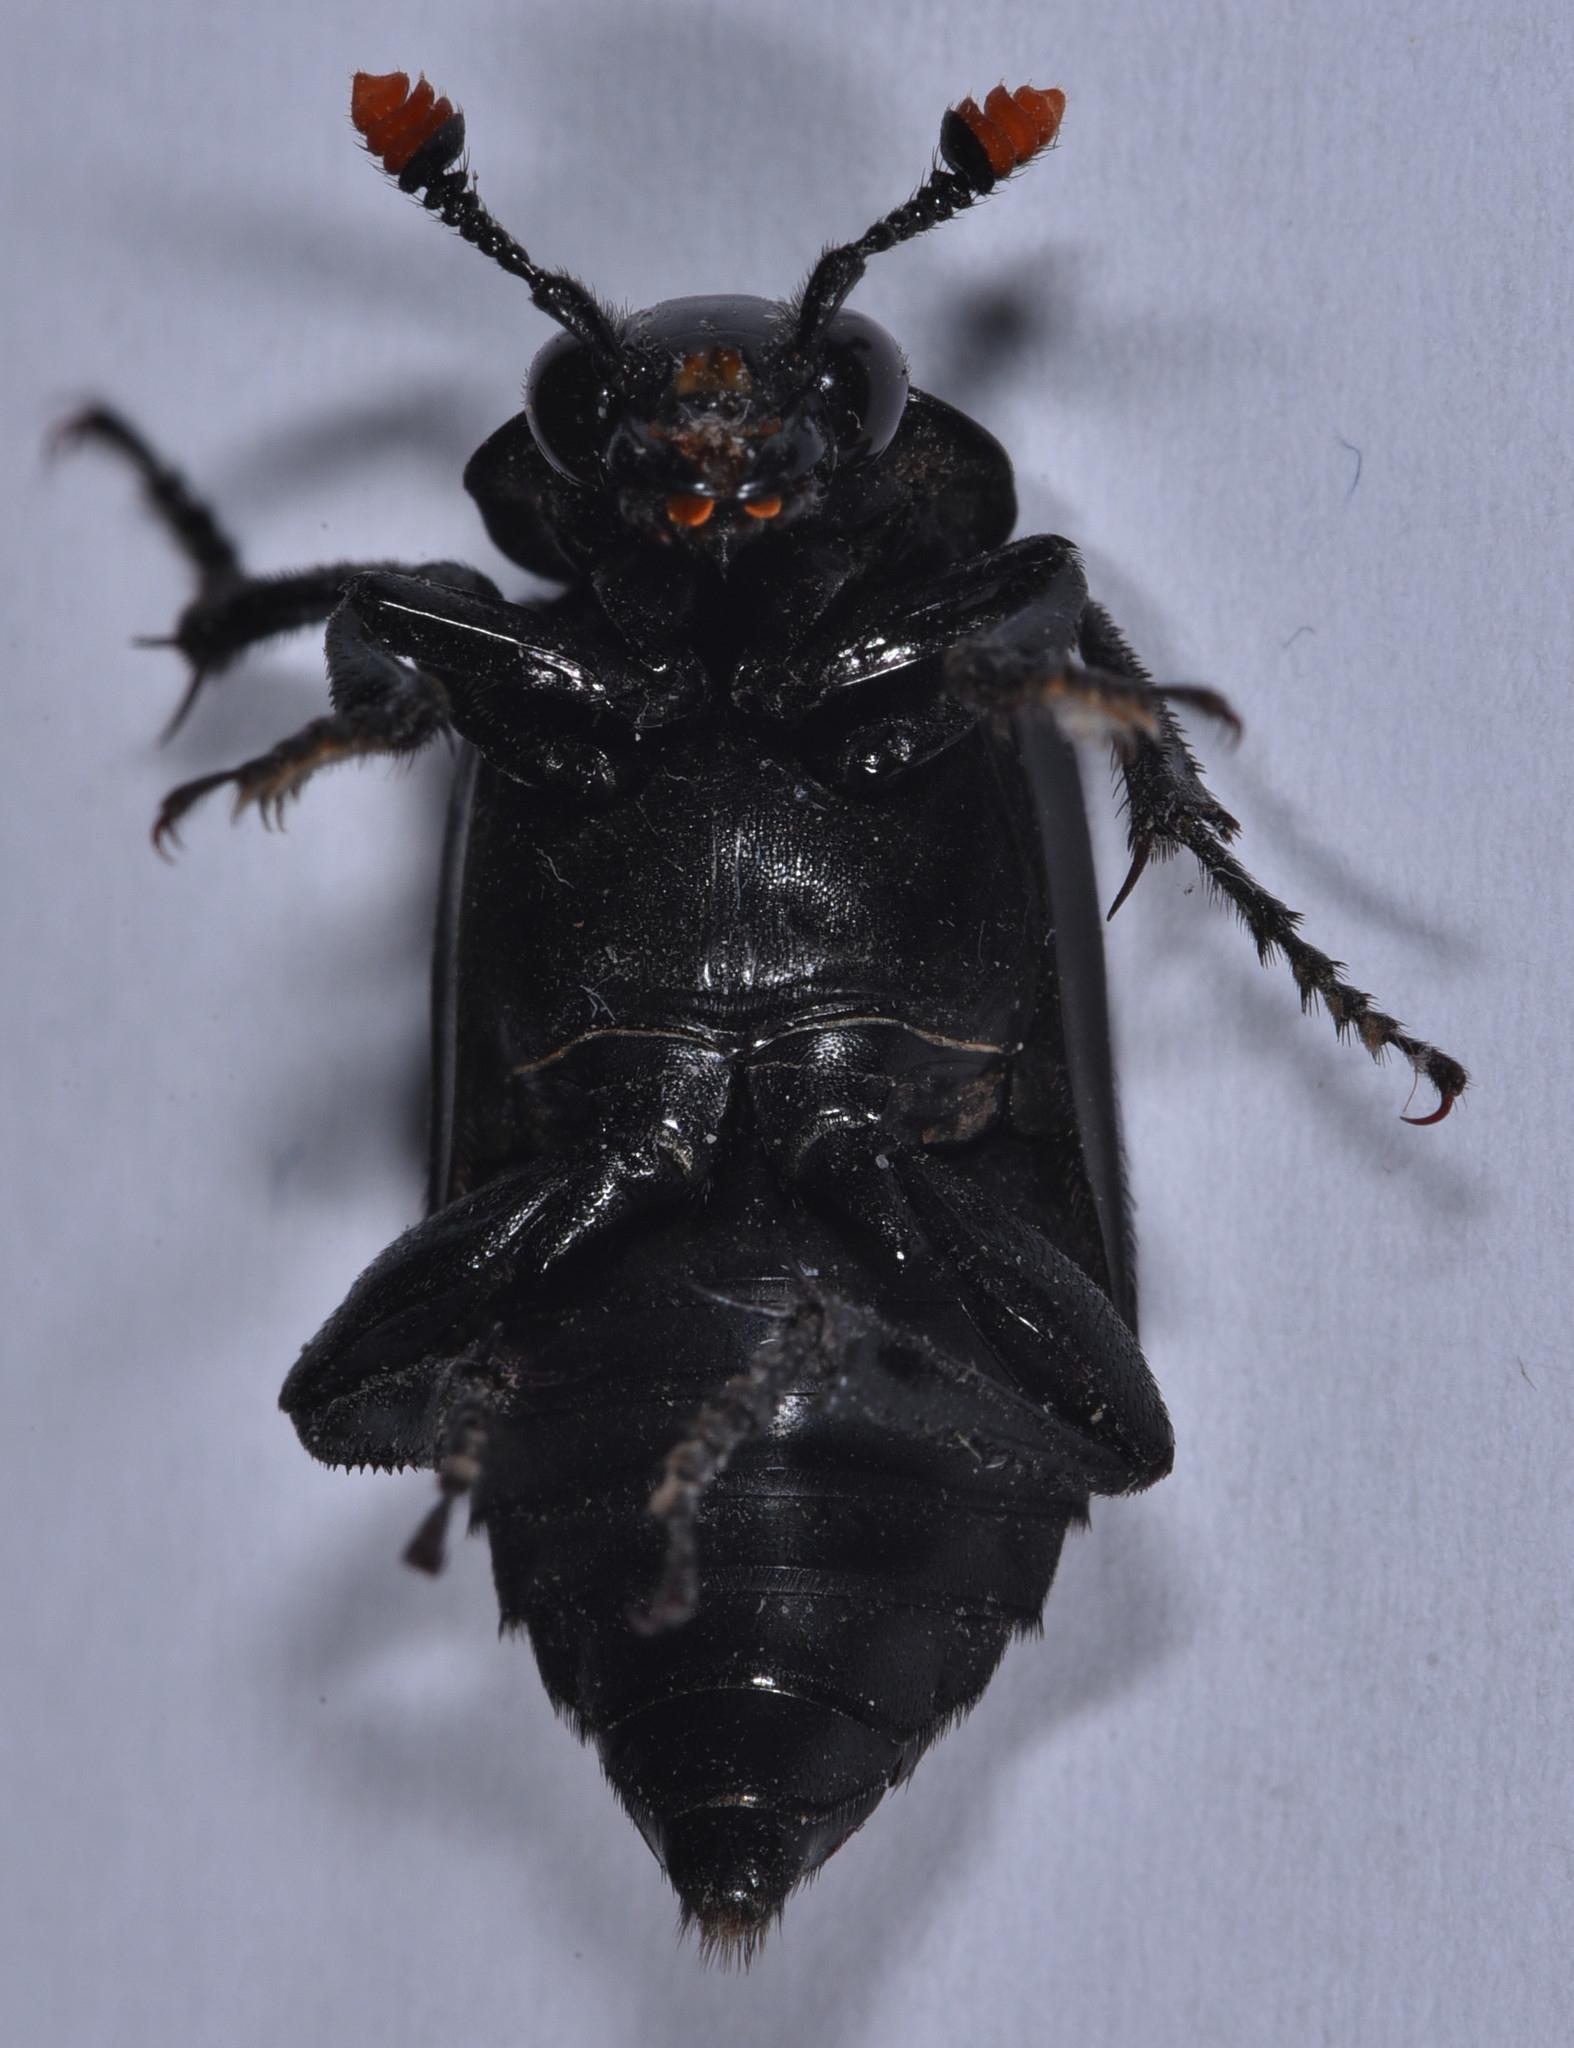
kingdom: Animalia
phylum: Arthropoda
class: Insecta
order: Coleoptera
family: Staphylinidae
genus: Nicrophorus
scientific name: Nicrophorus nigrita
